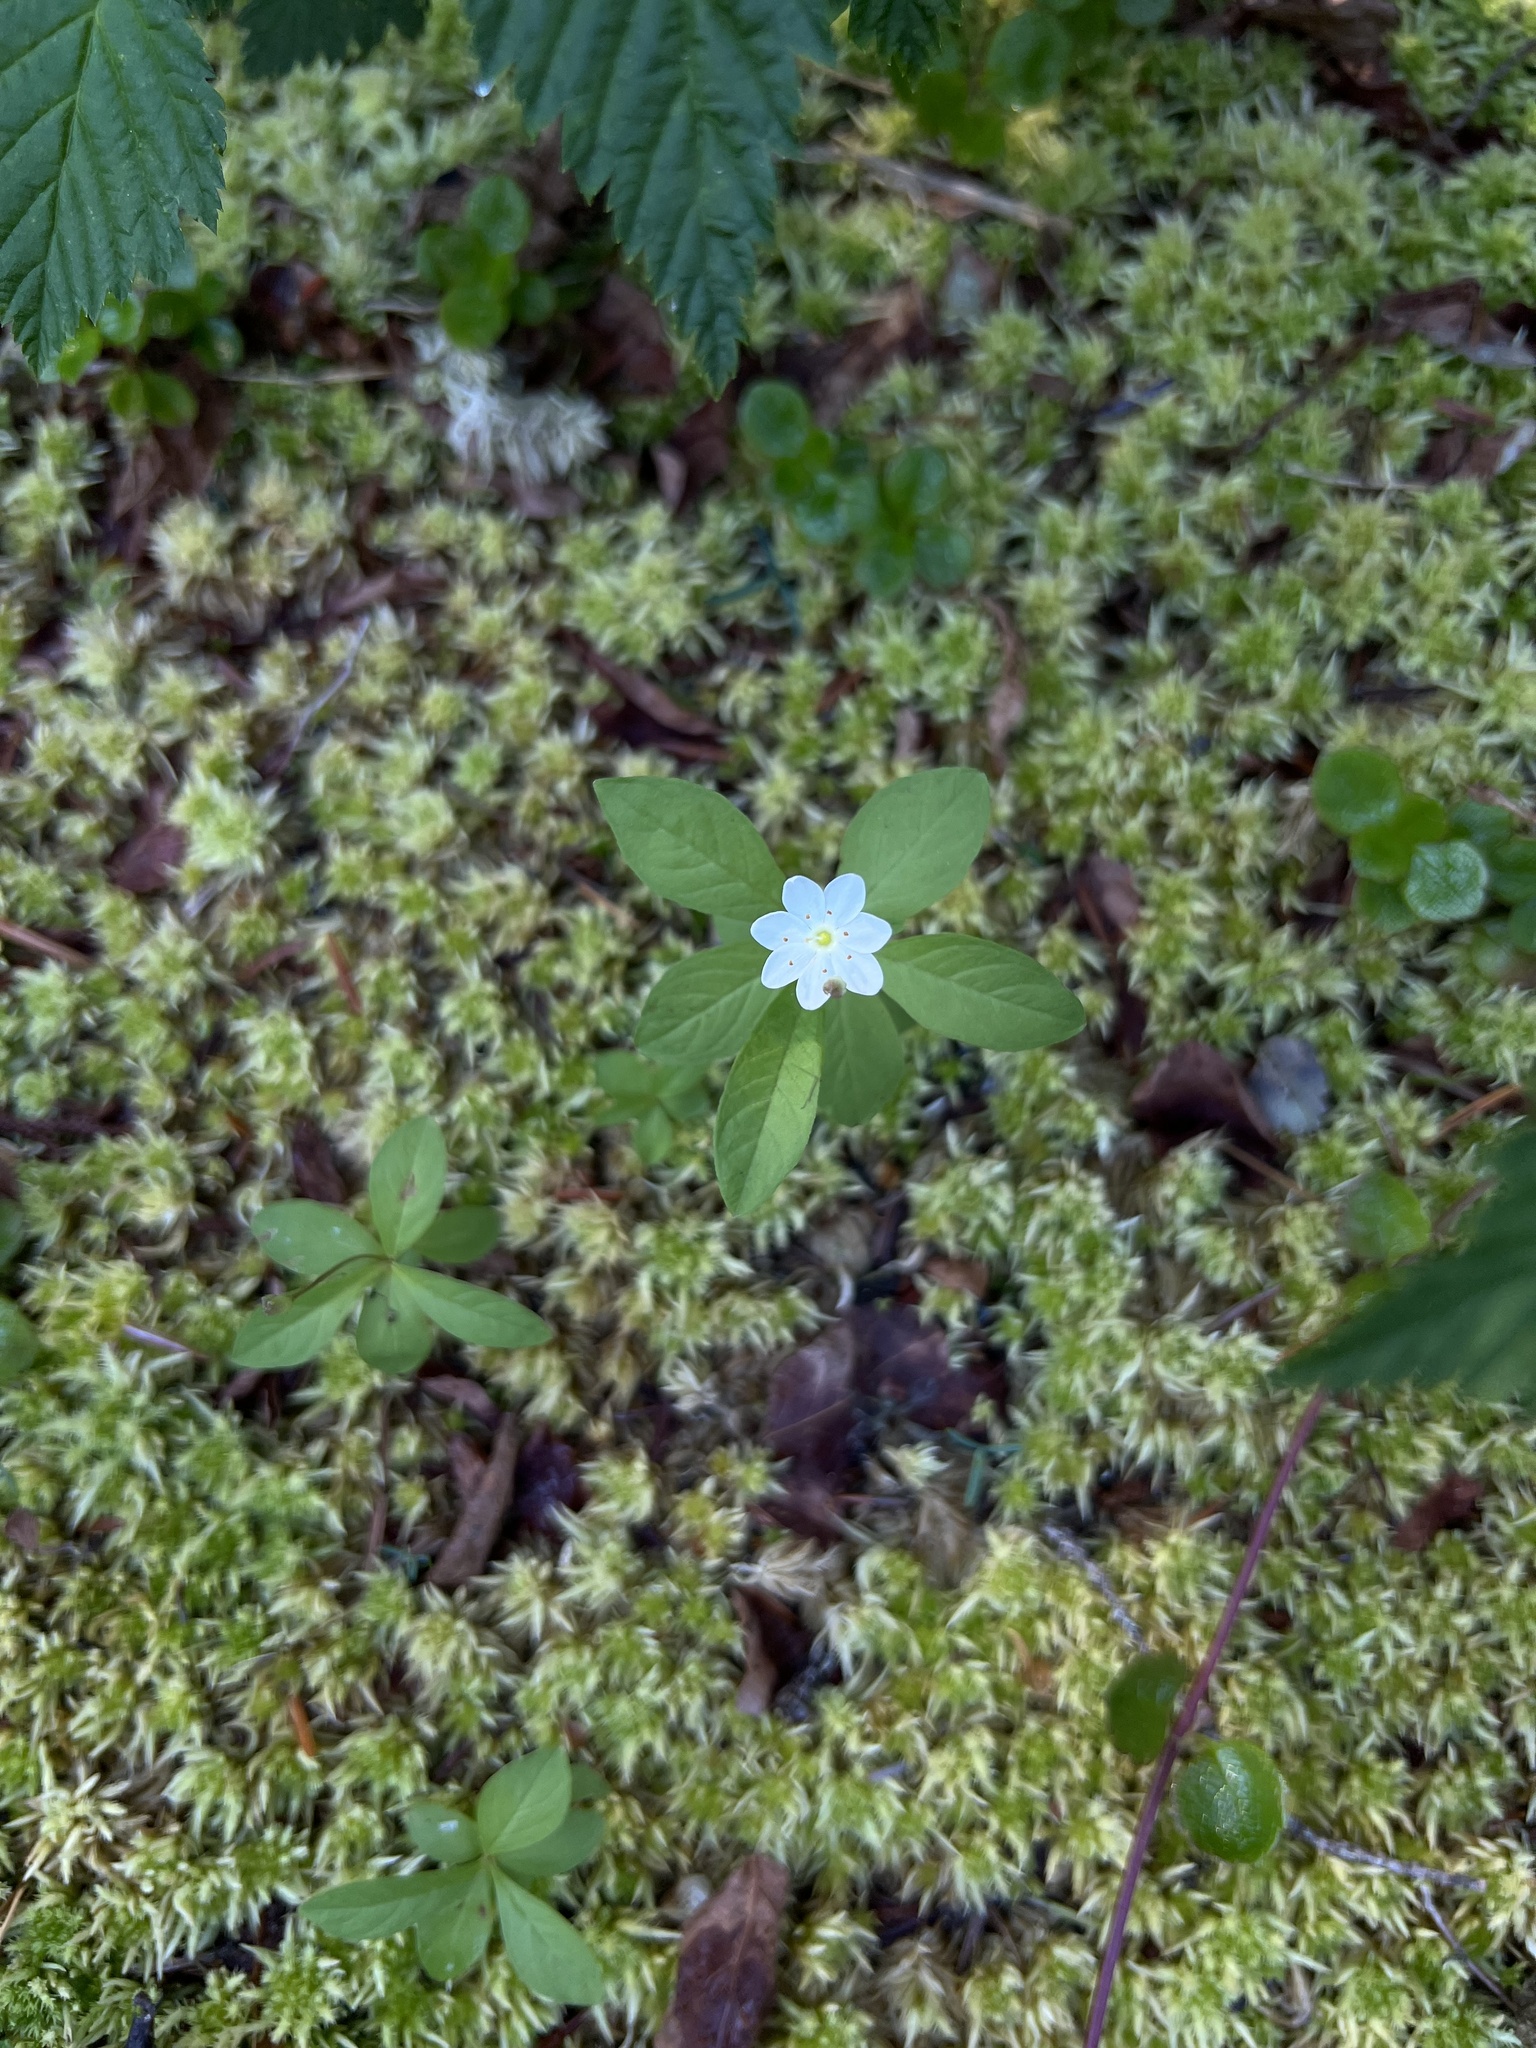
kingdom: Plantae
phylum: Tracheophyta
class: Magnoliopsida
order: Ericales
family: Primulaceae
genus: Lysimachia
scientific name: Lysimachia europaea
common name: Arctic starflower
